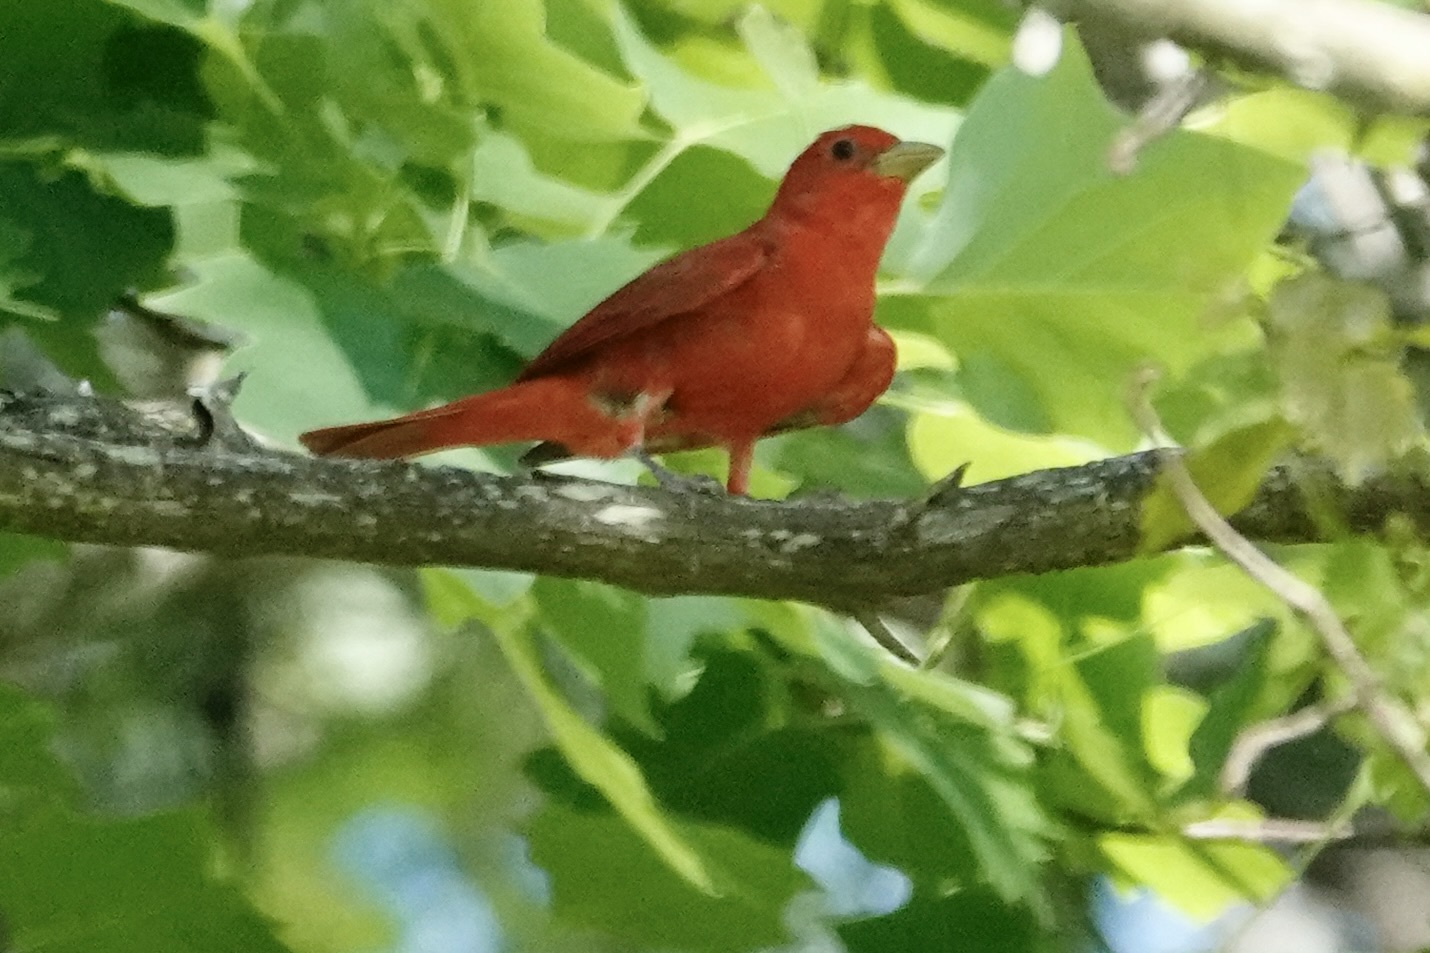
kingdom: Animalia
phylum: Chordata
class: Aves
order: Passeriformes
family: Cardinalidae
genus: Piranga
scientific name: Piranga rubra
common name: Summer tanager
